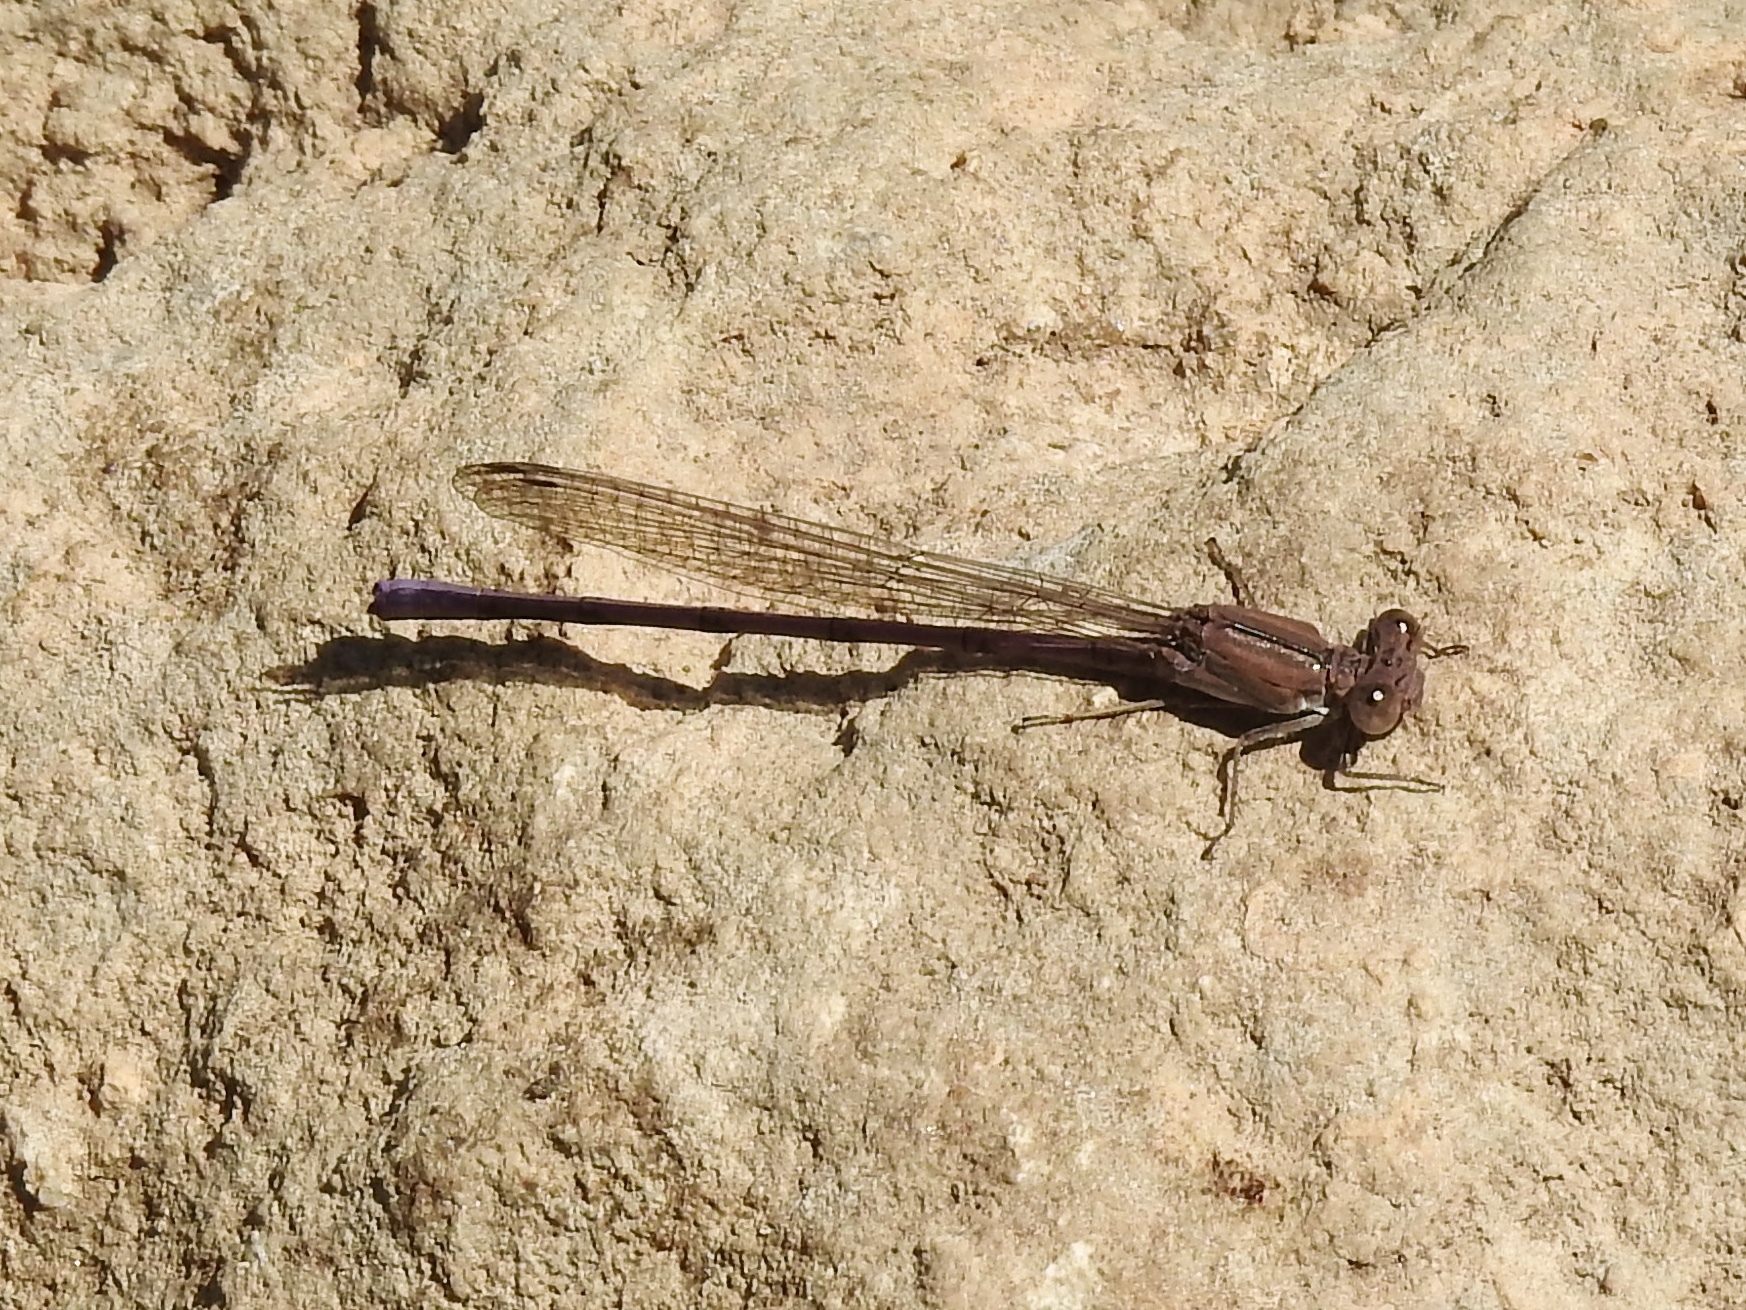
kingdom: Animalia
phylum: Arthropoda
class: Insecta
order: Odonata
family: Coenagrionidae
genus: Argia
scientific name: Argia pallens
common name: Amethyst dancer
